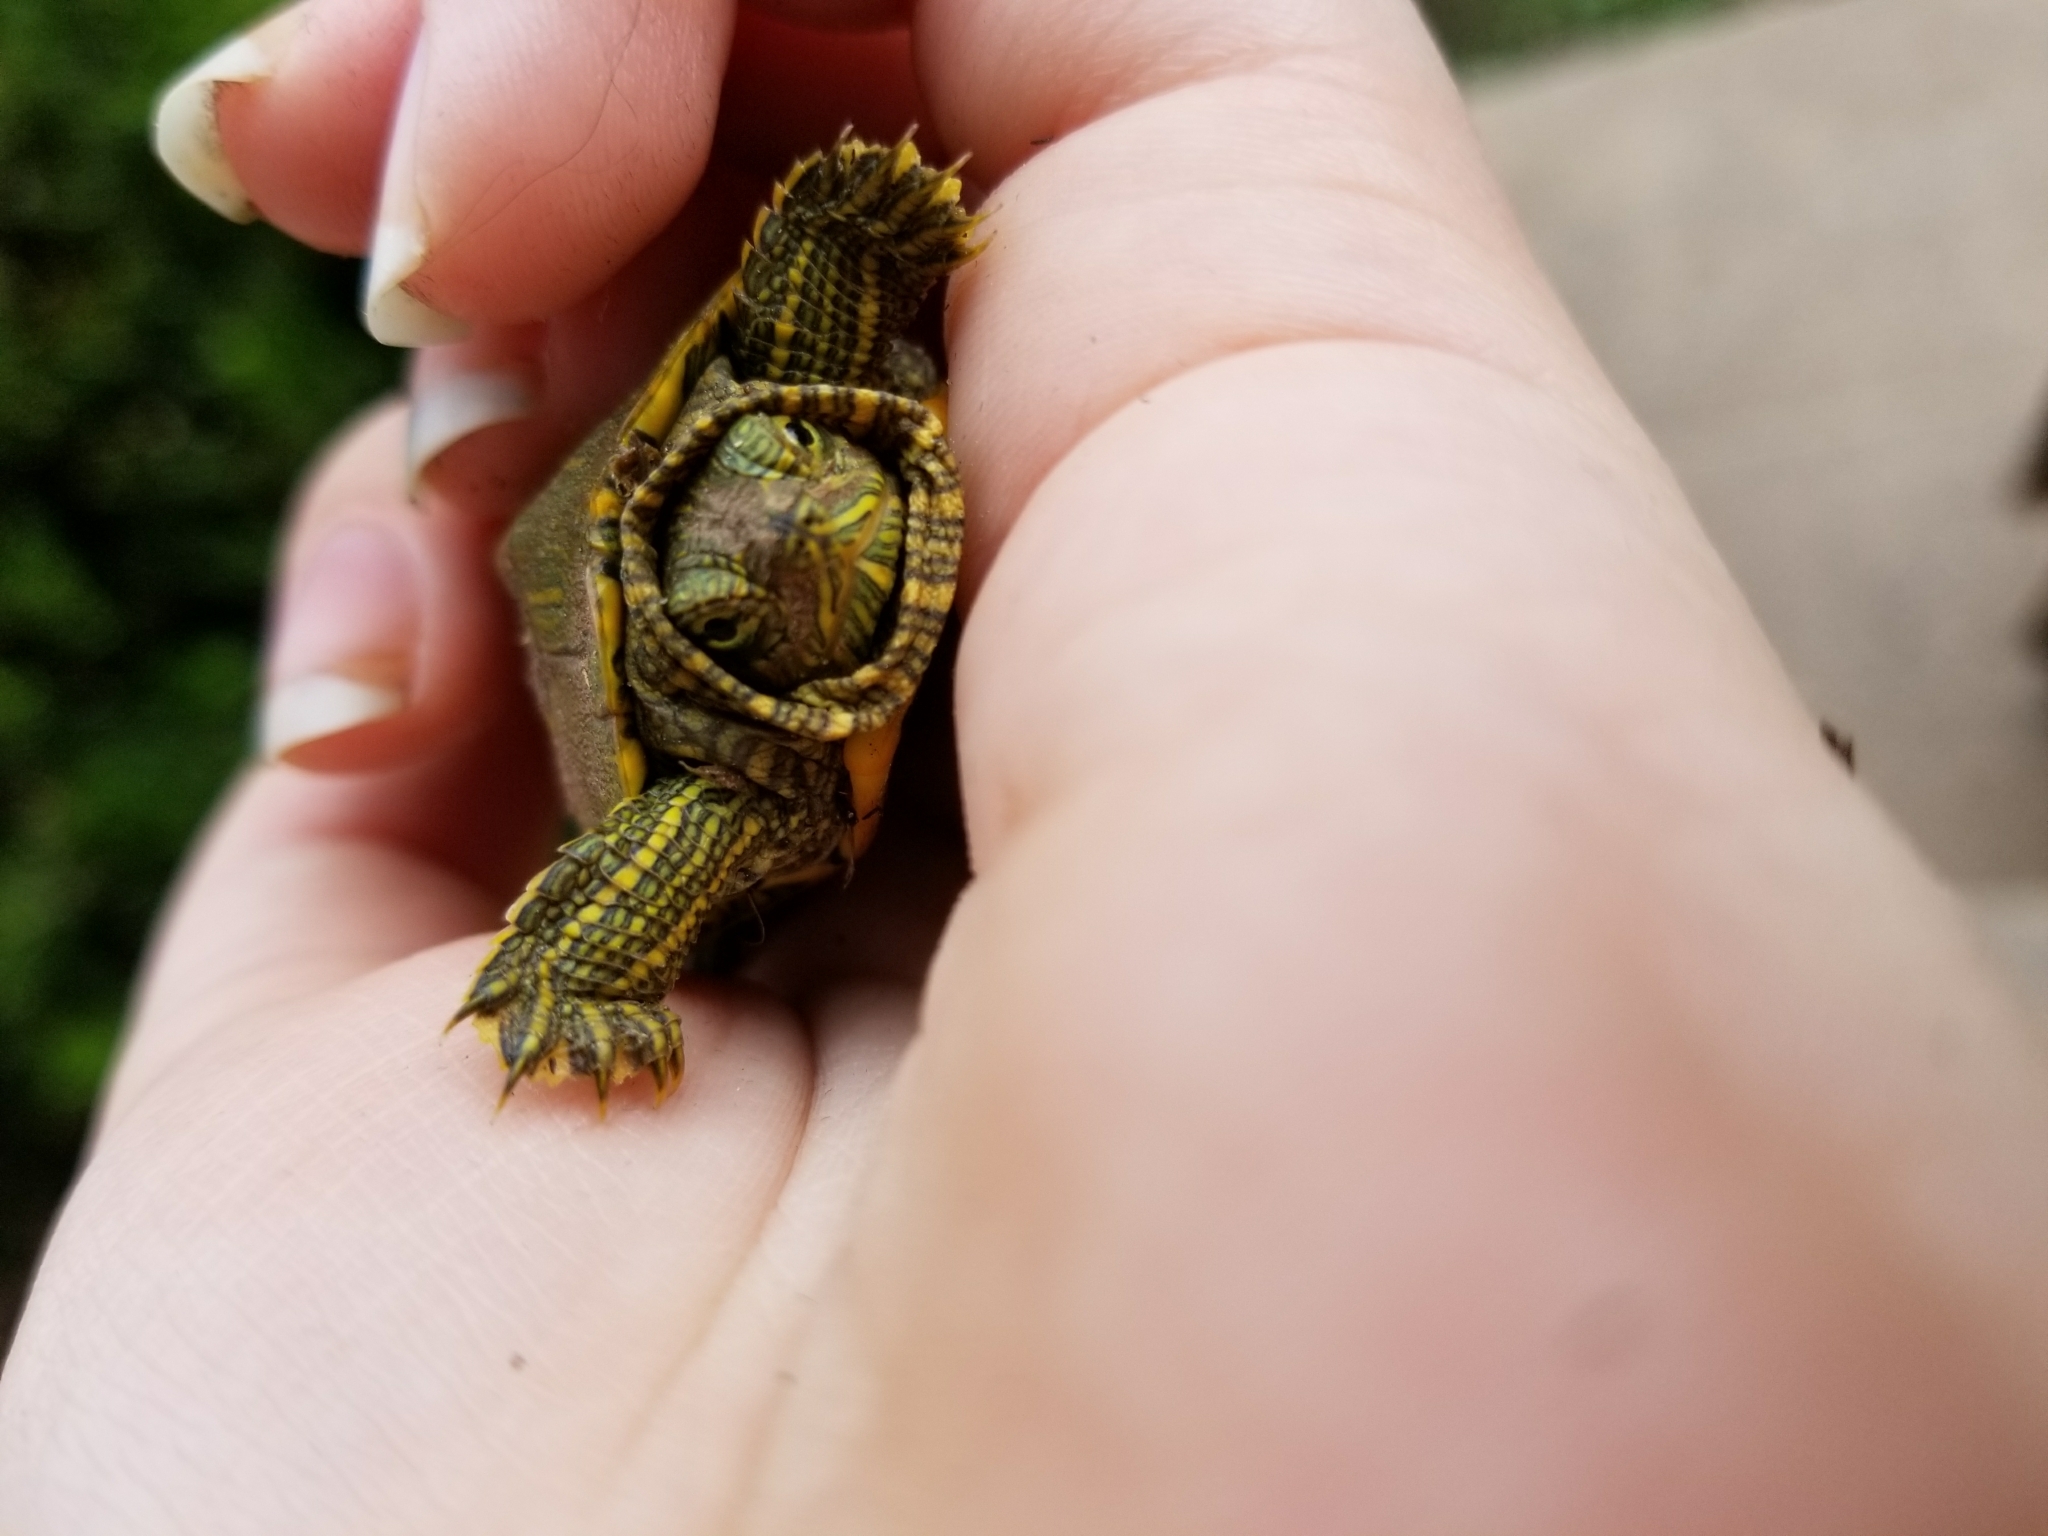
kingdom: Animalia
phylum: Chordata
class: Testudines
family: Emydidae
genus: Trachemys
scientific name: Trachemys scripta
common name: Slider
